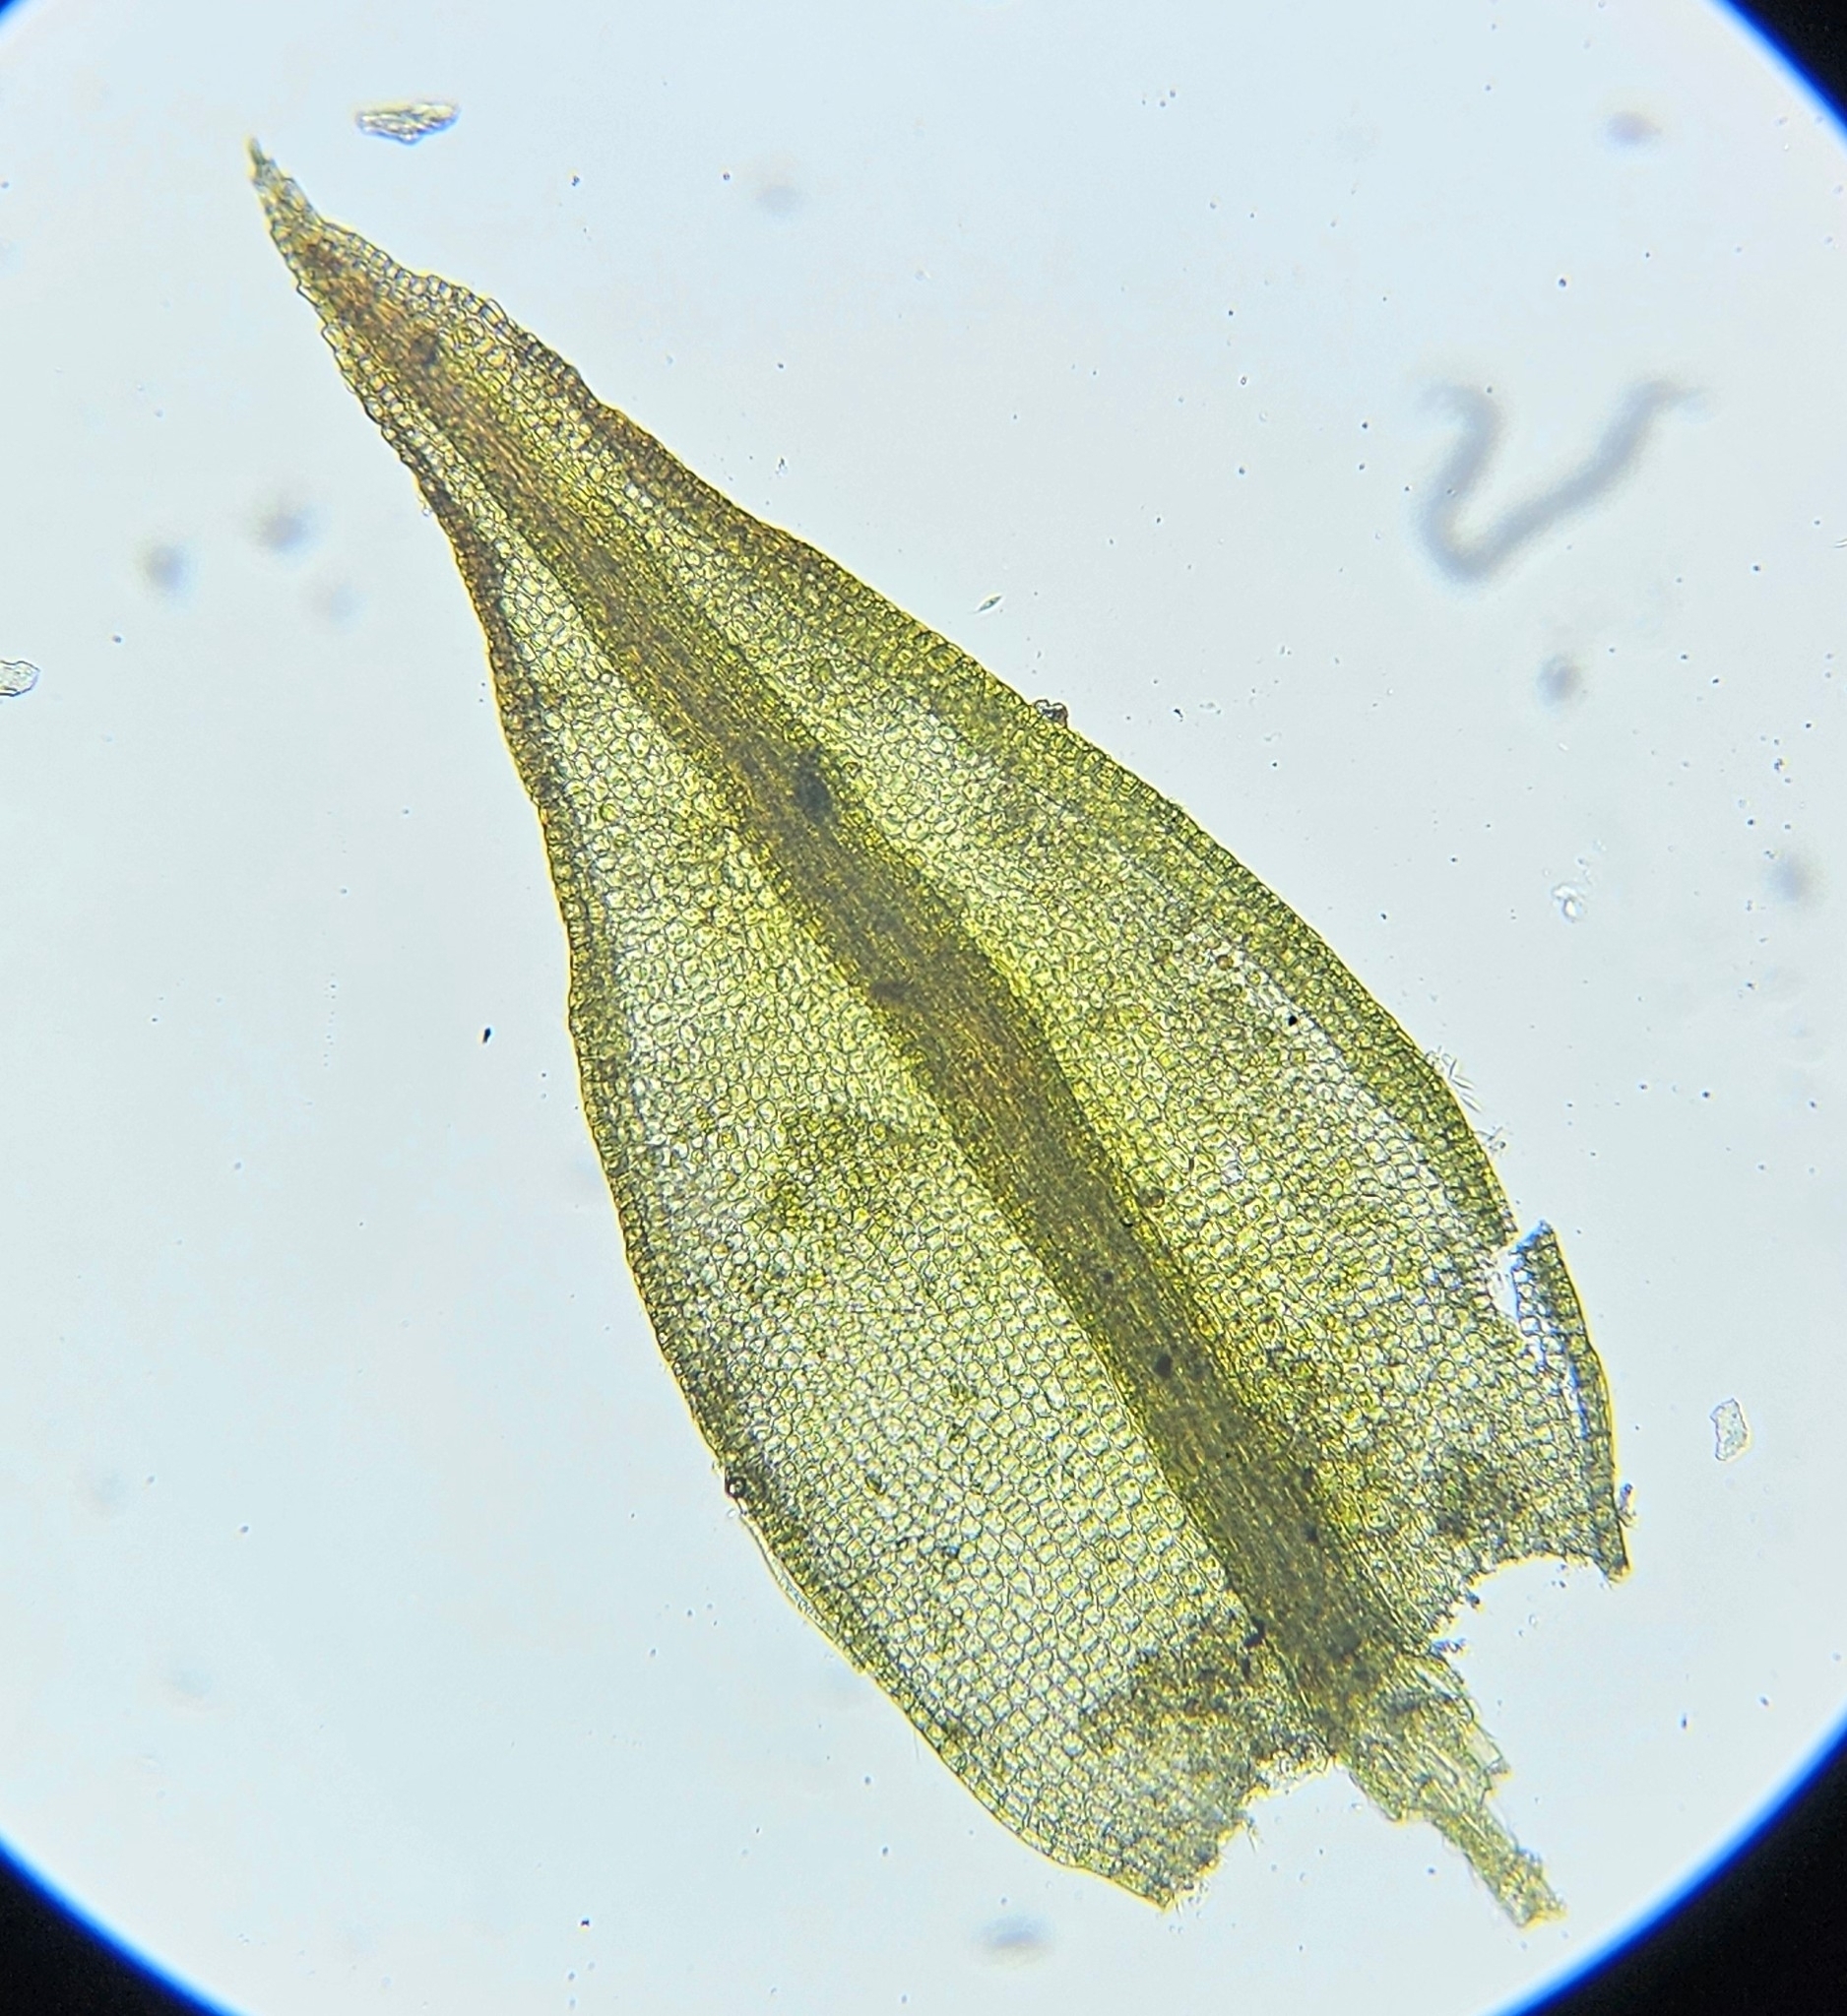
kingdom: Plantae
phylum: Bryophyta
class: Bryopsida
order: Dicranales
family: Ditrichaceae
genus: Ceratodon
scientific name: Ceratodon purpureus
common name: Redshank
